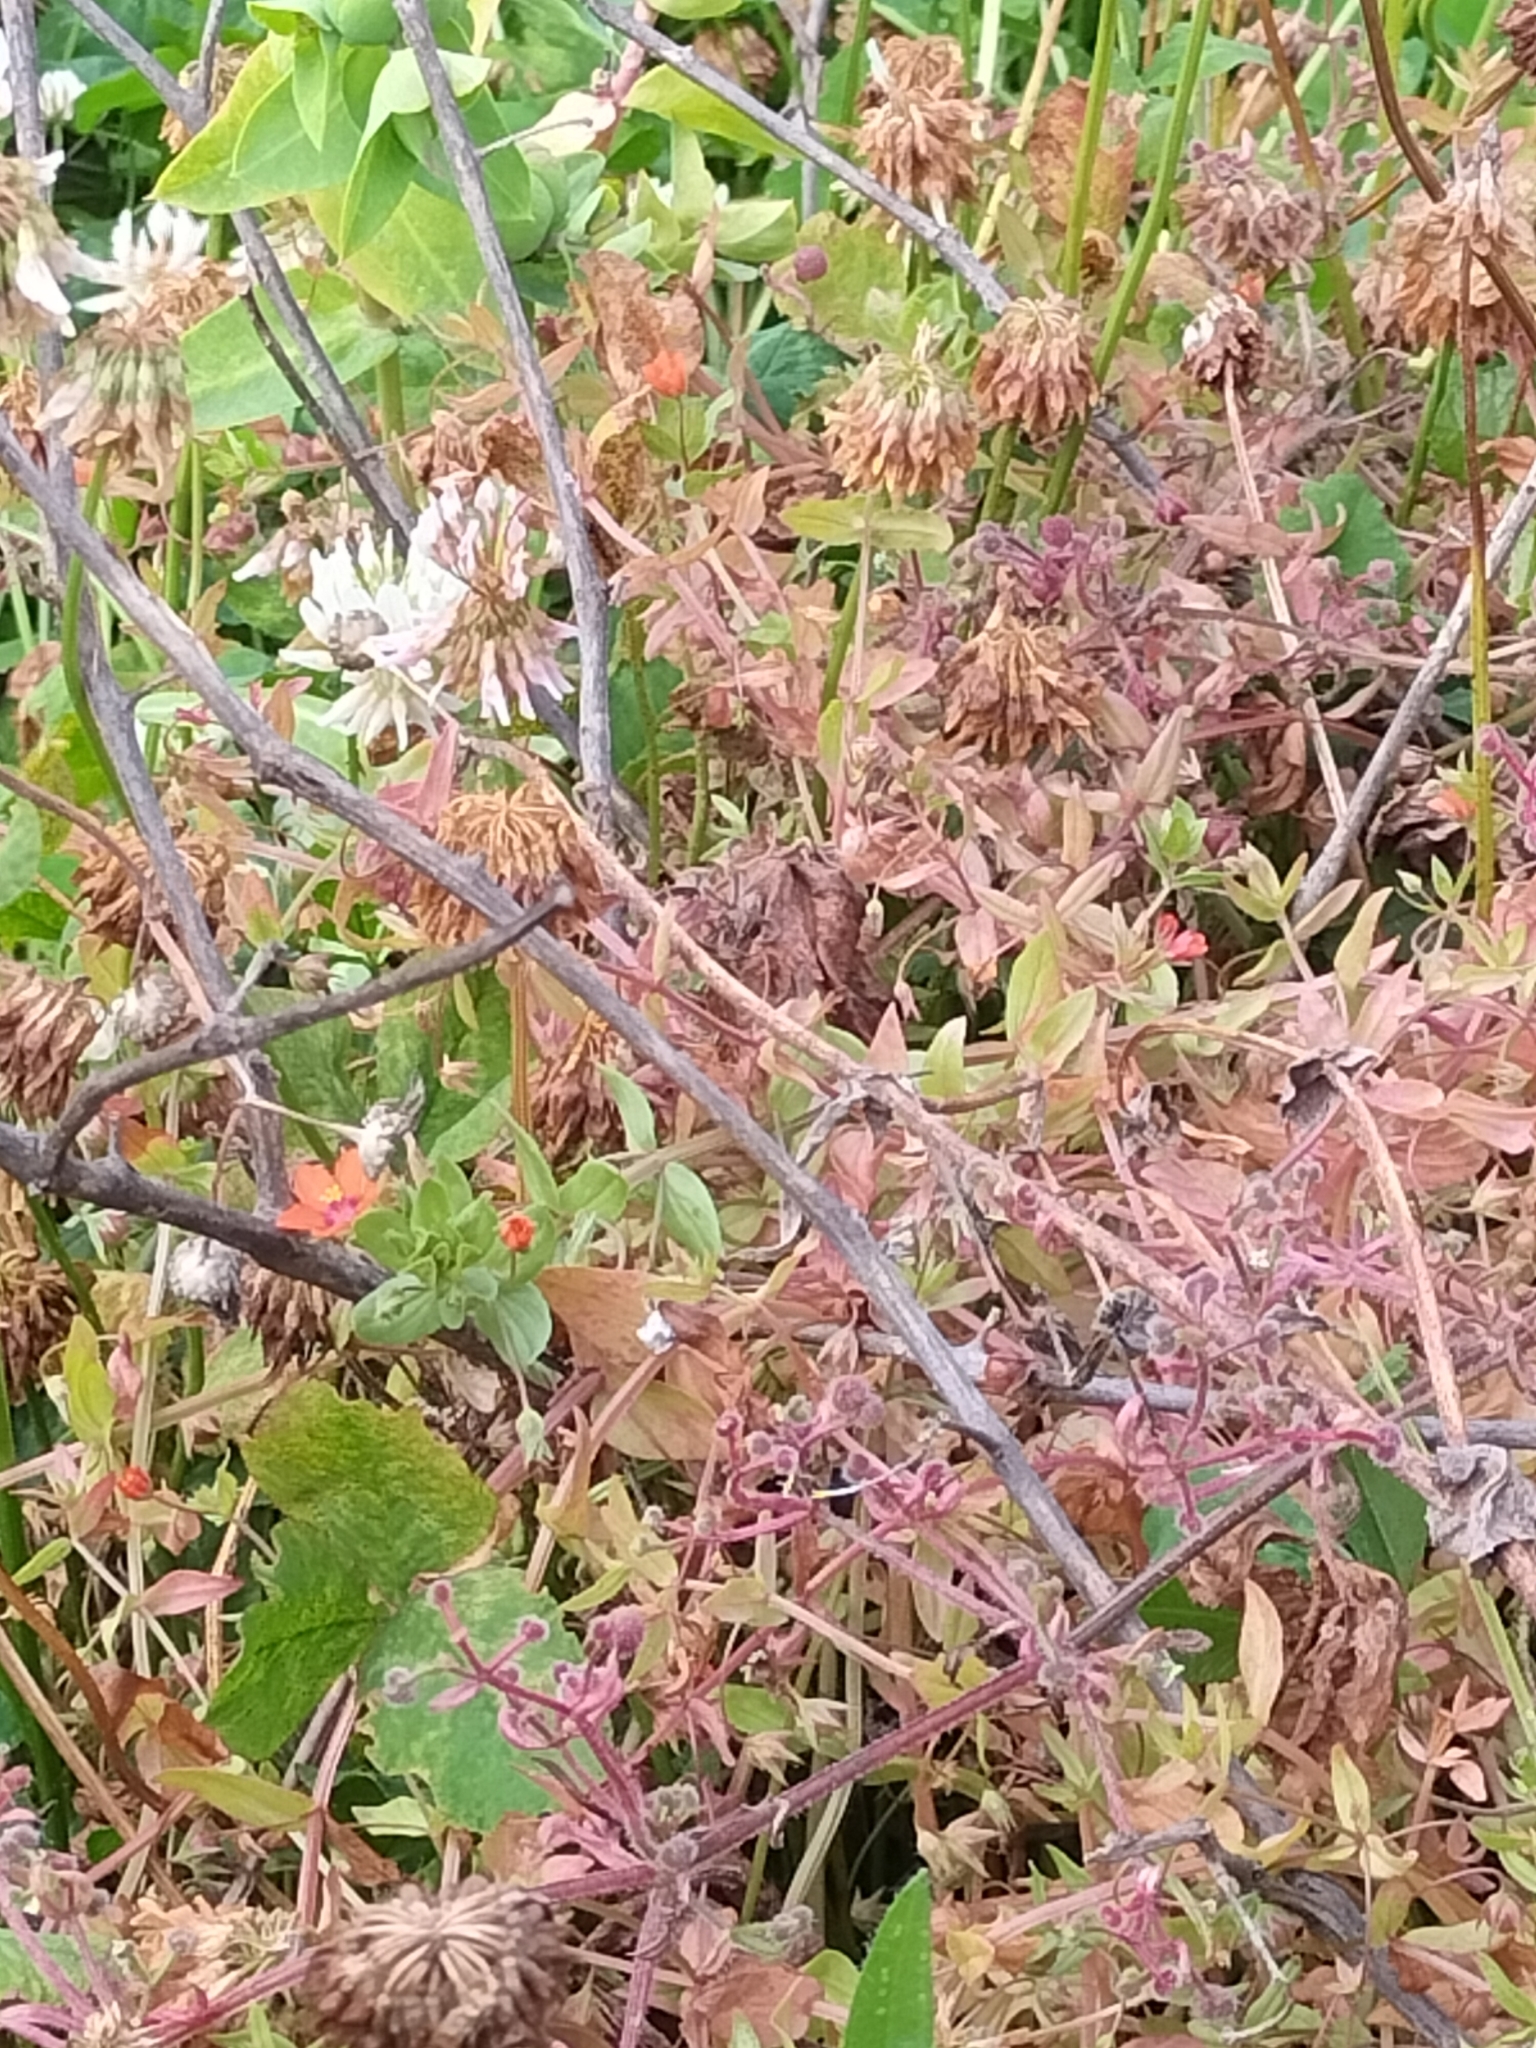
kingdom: Plantae
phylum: Tracheophyta
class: Magnoliopsida
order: Ericales
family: Primulaceae
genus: Lysimachia
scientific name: Lysimachia arvensis
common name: Scarlet pimpernel
